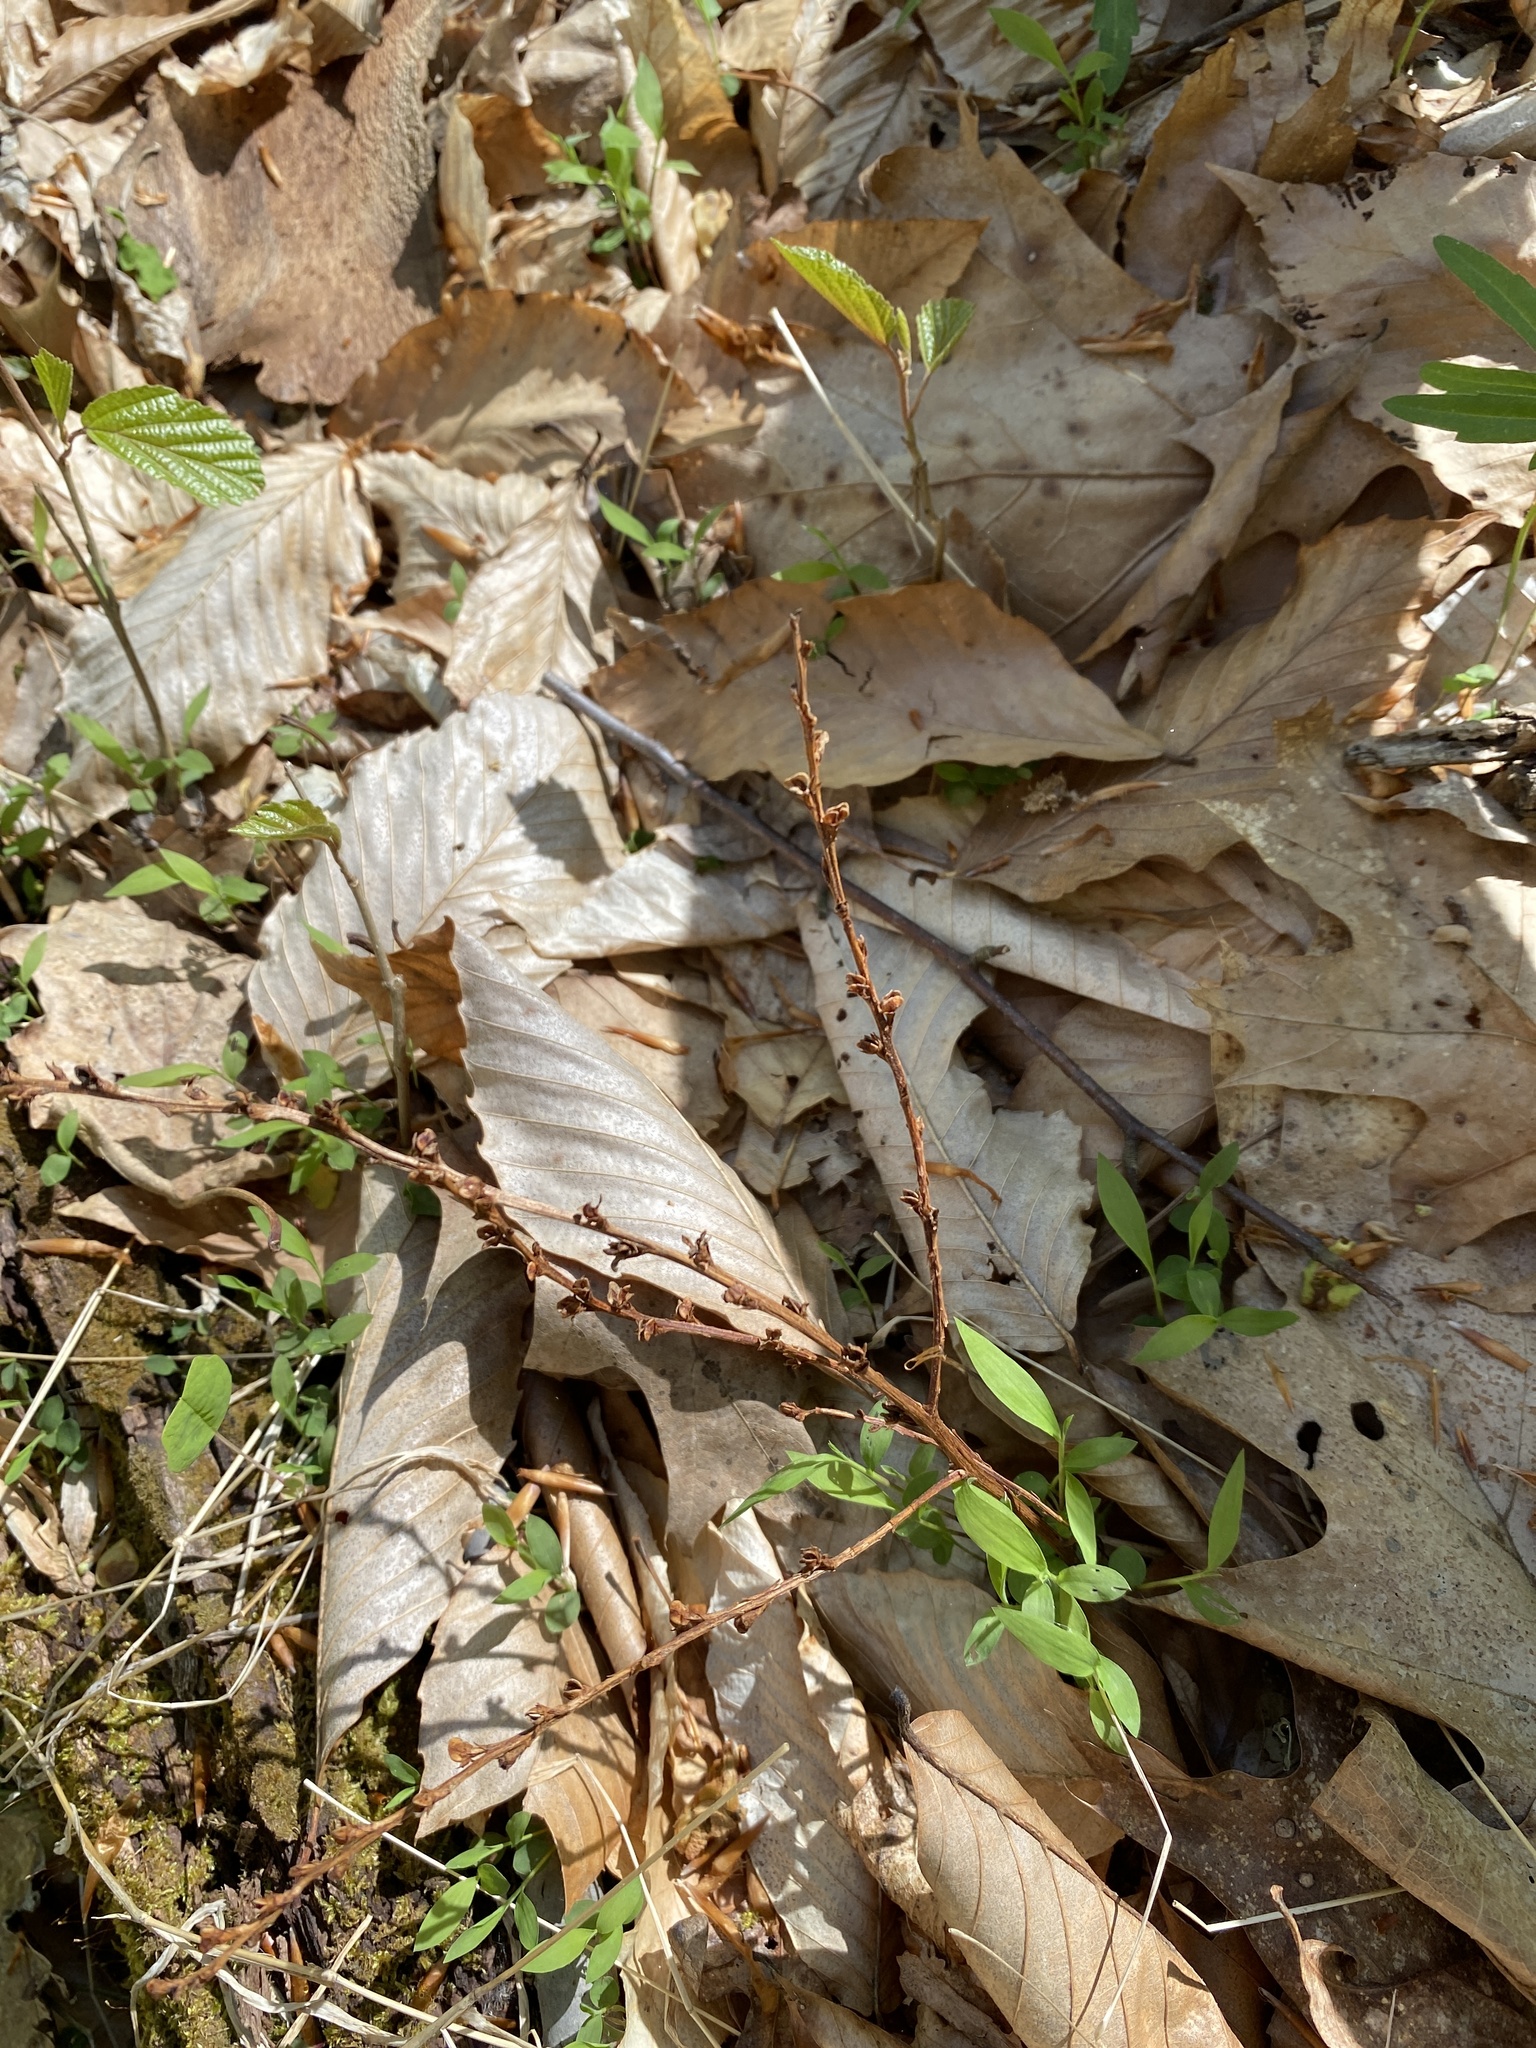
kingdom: Plantae
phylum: Tracheophyta
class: Magnoliopsida
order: Lamiales
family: Orobanchaceae
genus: Epifagus
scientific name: Epifagus virginiana
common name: Beechdrops
